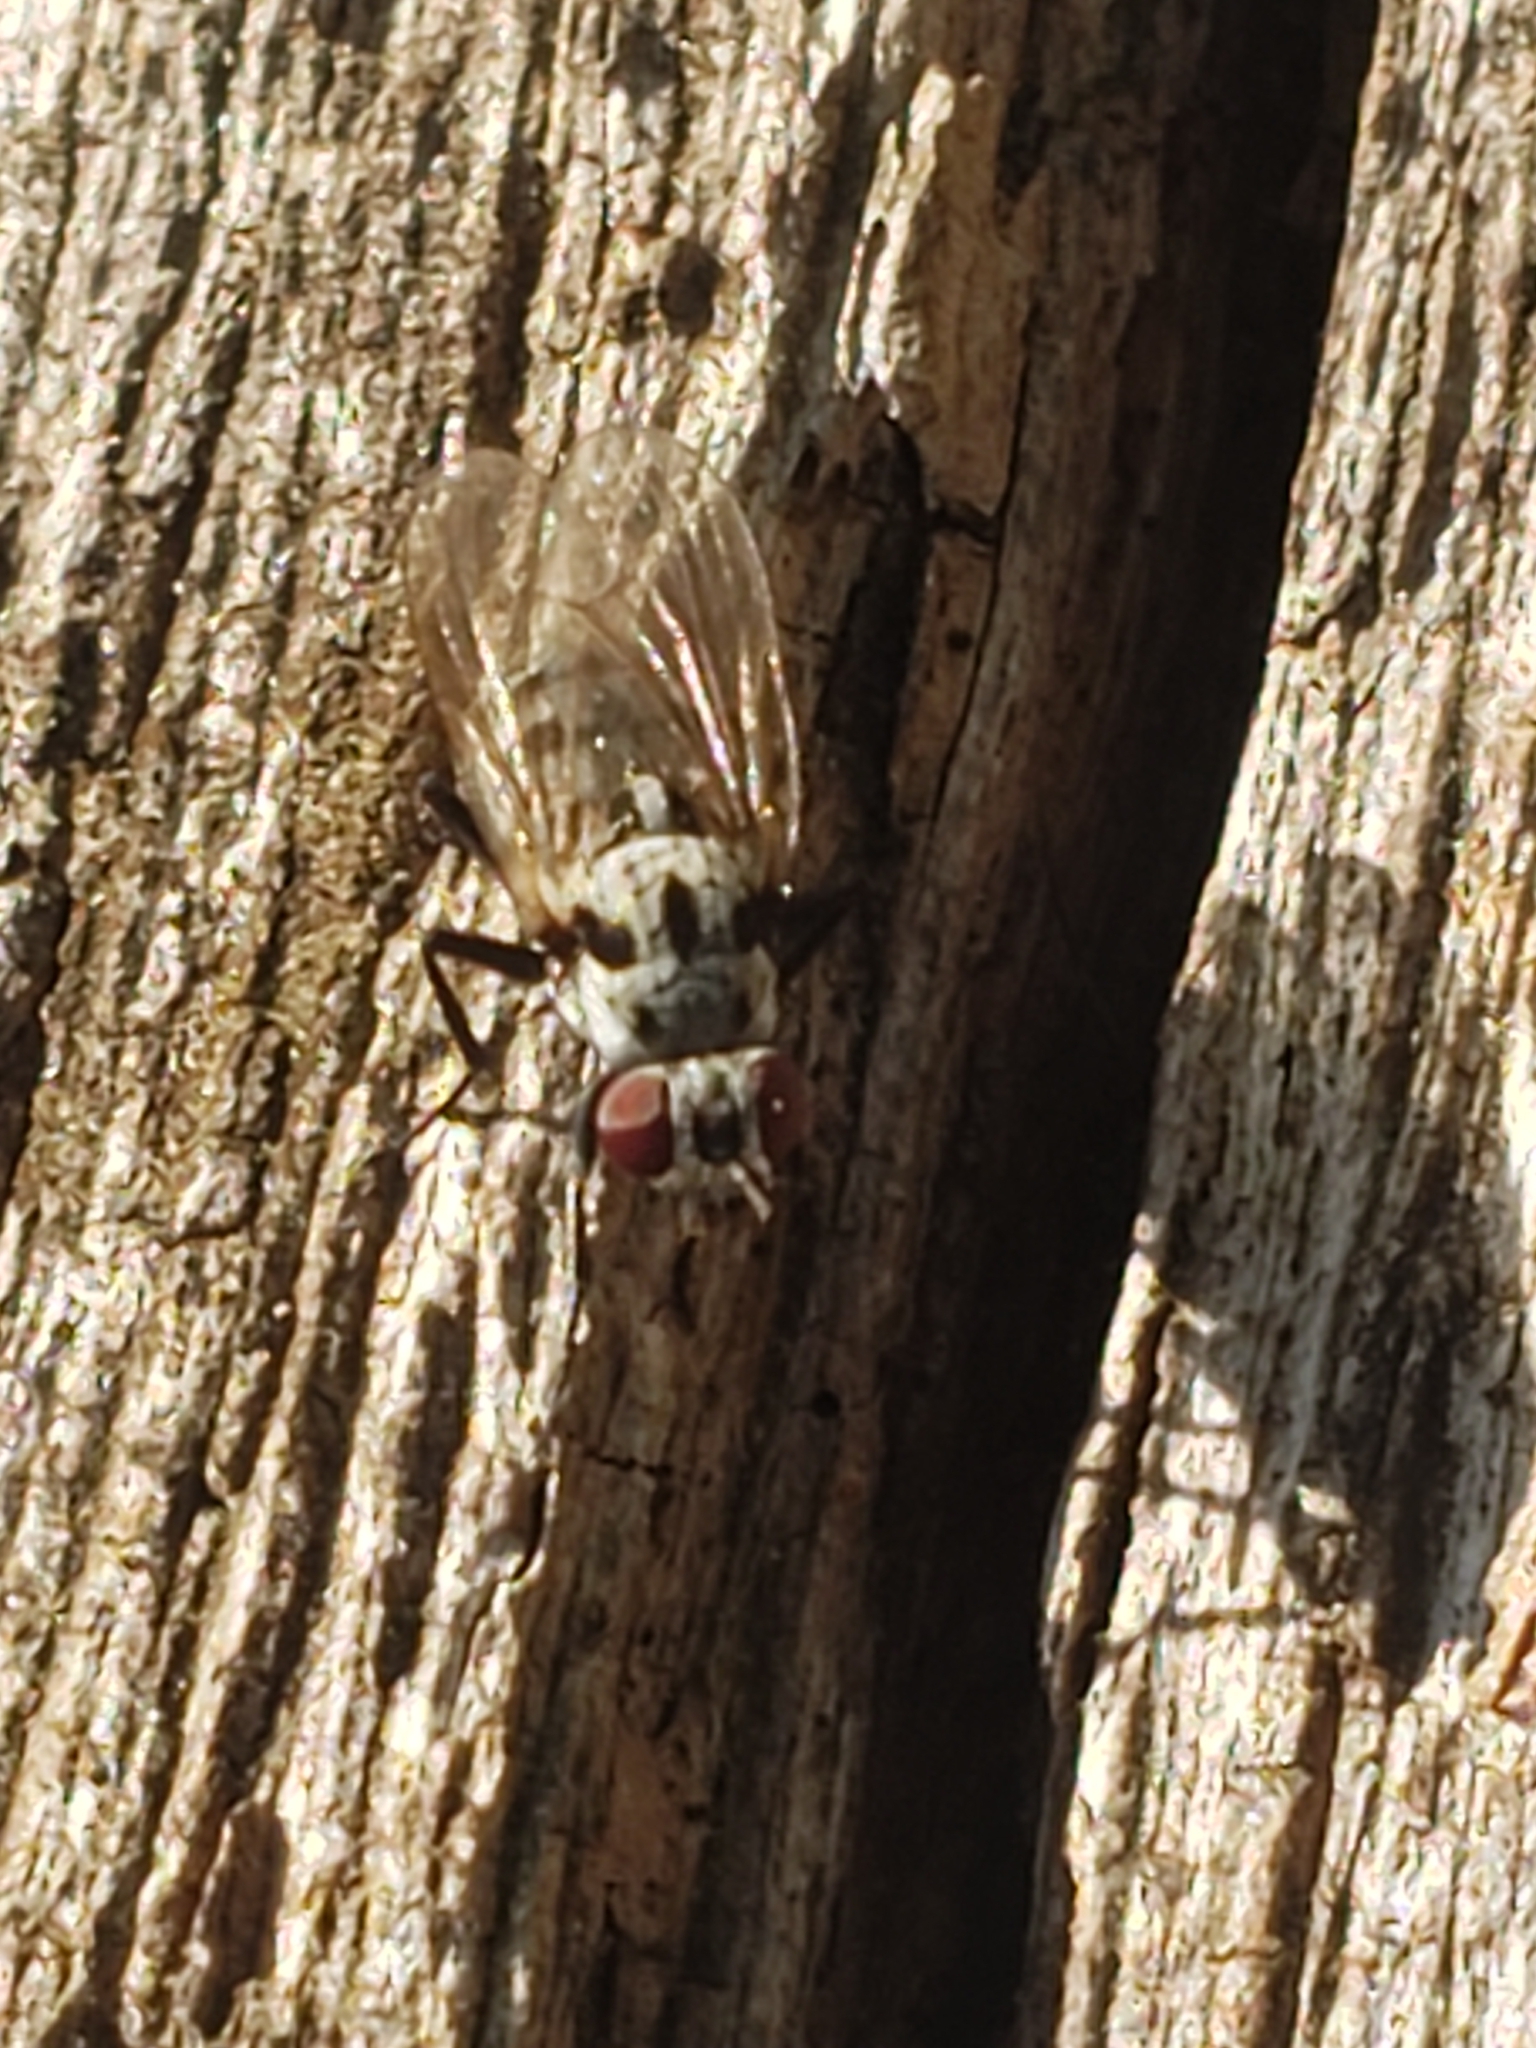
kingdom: Animalia
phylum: Arthropoda
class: Insecta
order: Diptera
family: Anthomyiidae
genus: Anthomyia
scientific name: Anthomyia procellaris
